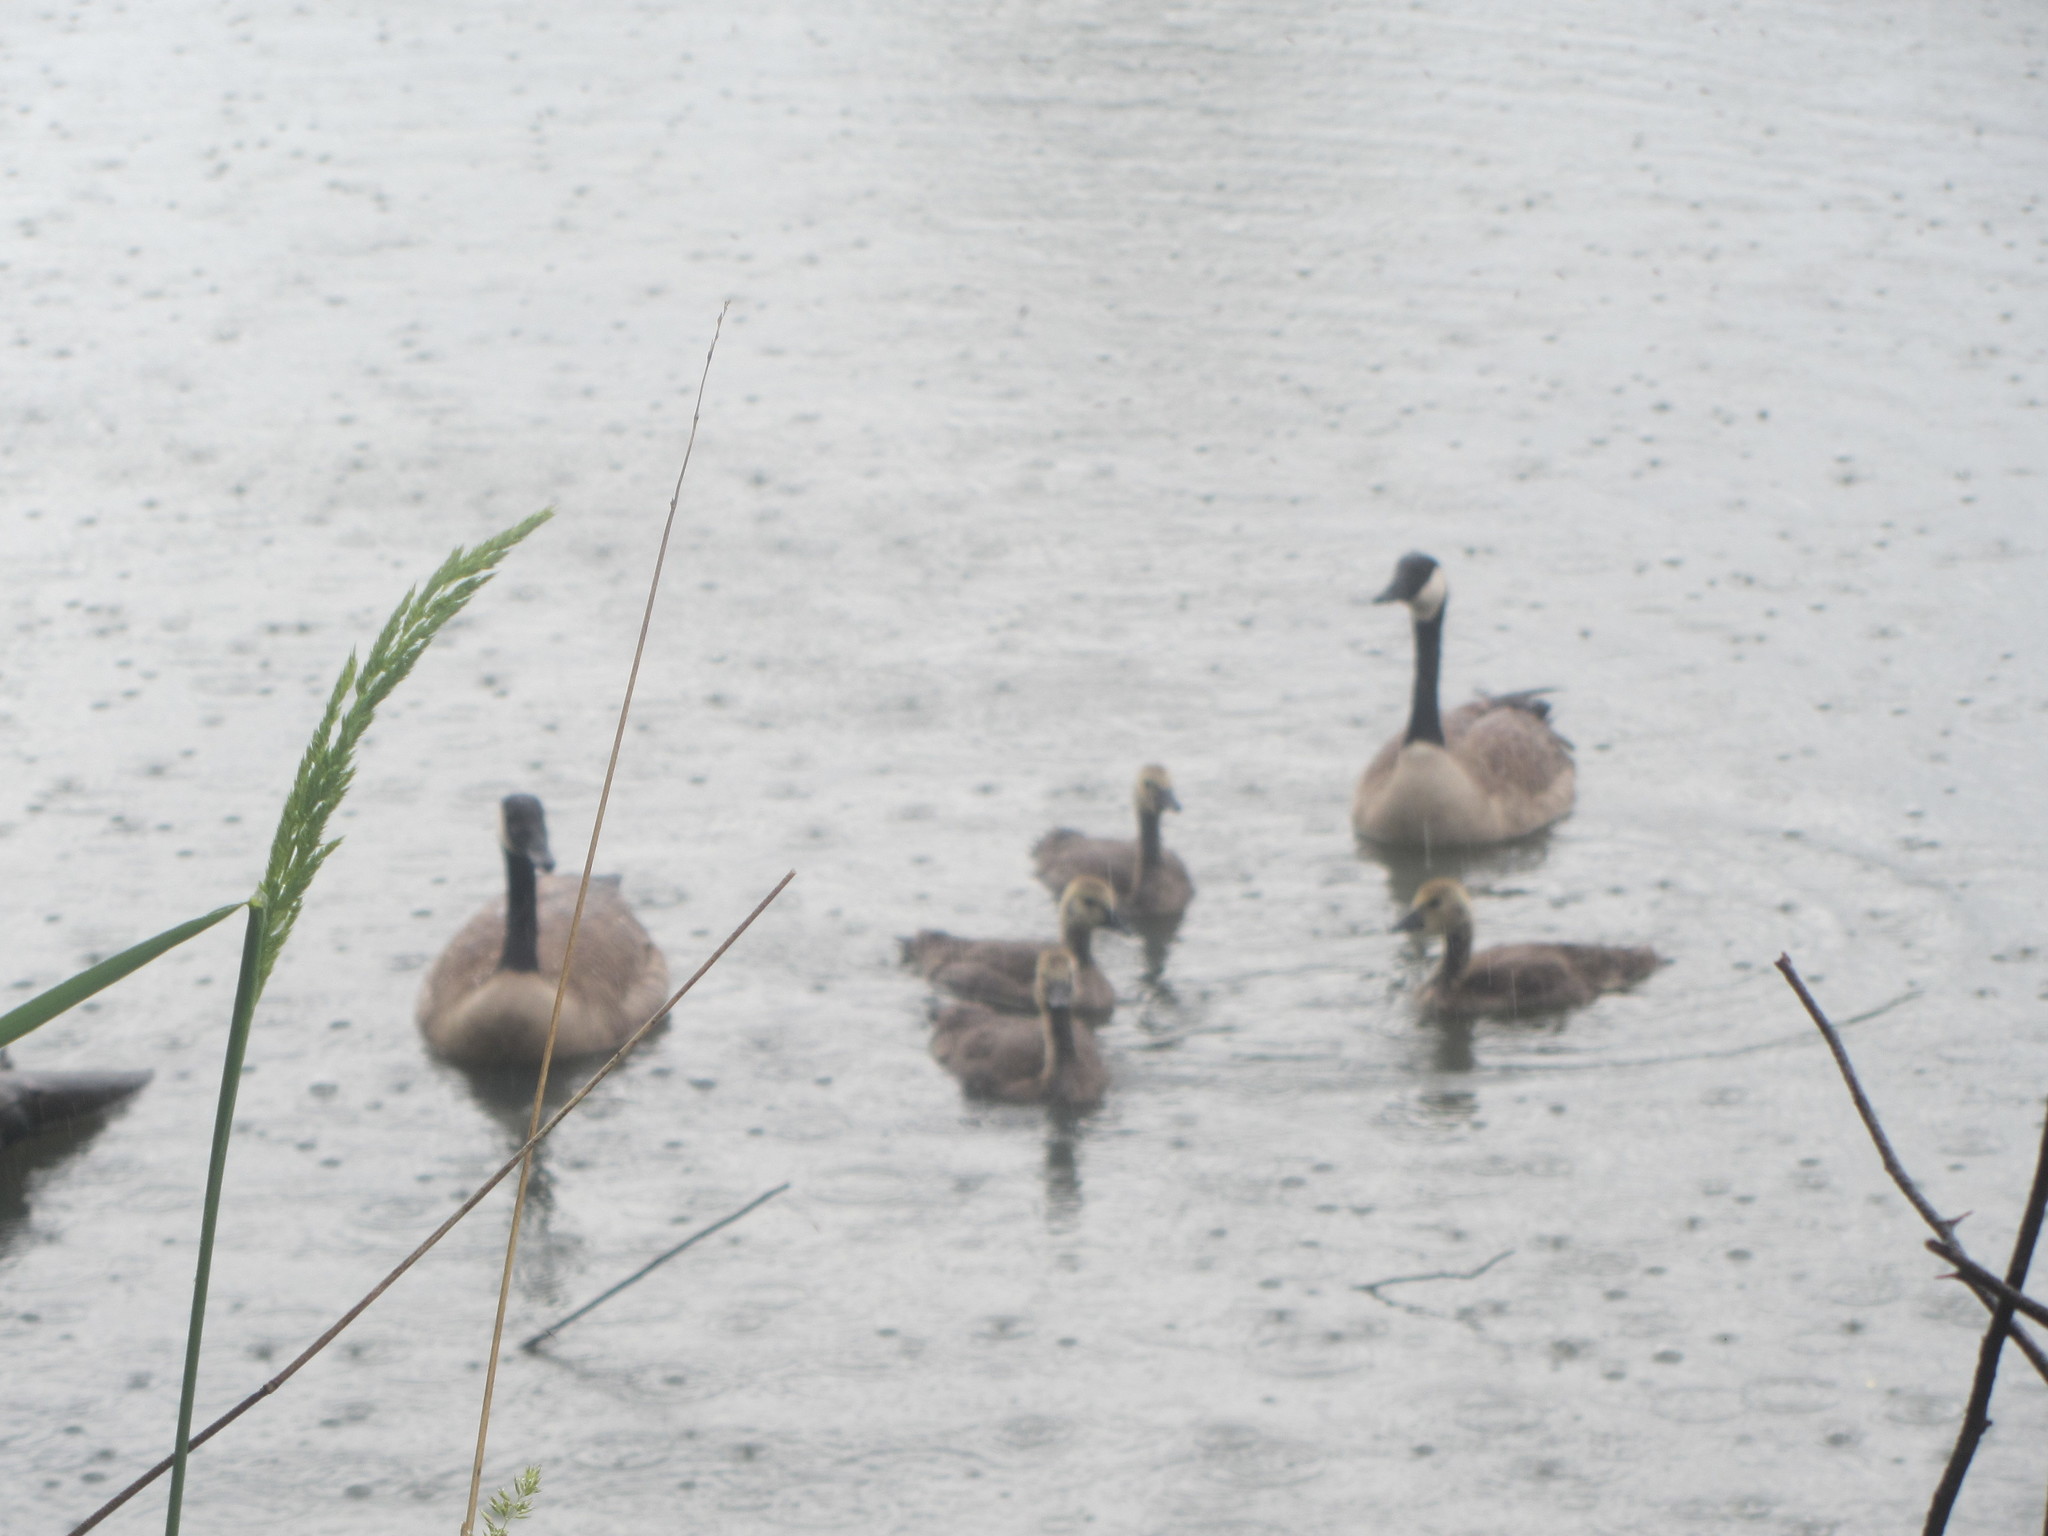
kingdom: Animalia
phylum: Chordata
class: Aves
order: Anseriformes
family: Anatidae
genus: Branta
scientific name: Branta canadensis
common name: Canada goose
